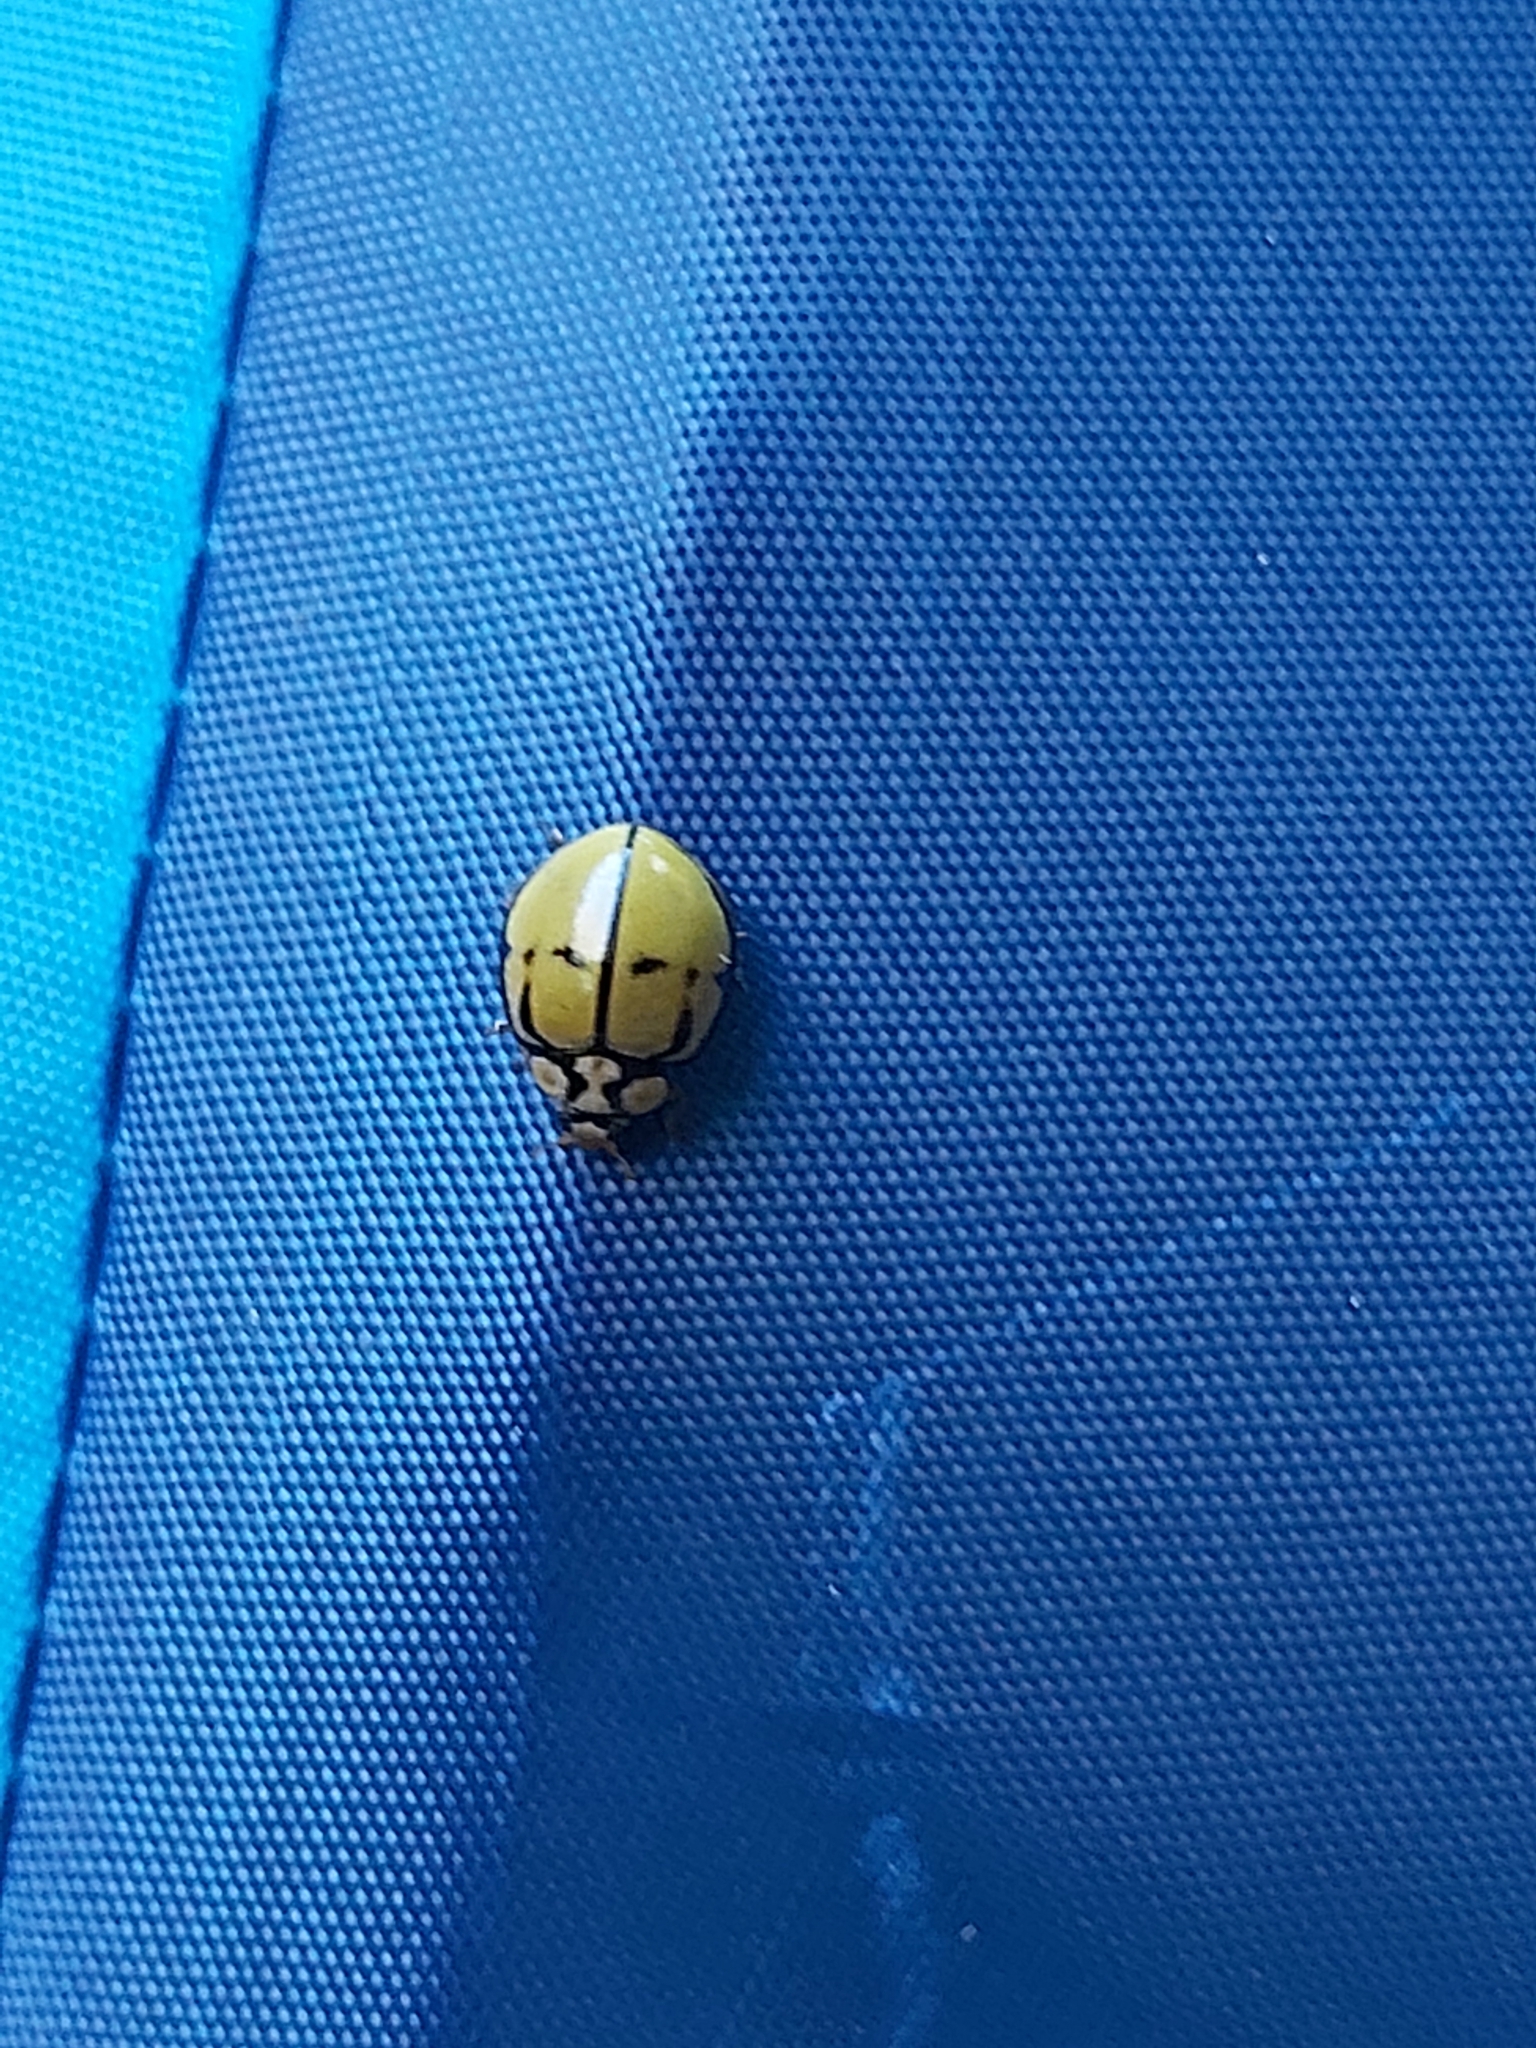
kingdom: Animalia
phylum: Arthropoda
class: Insecta
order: Coleoptera
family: Coccinellidae
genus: Harmonia
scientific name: Harmonia
